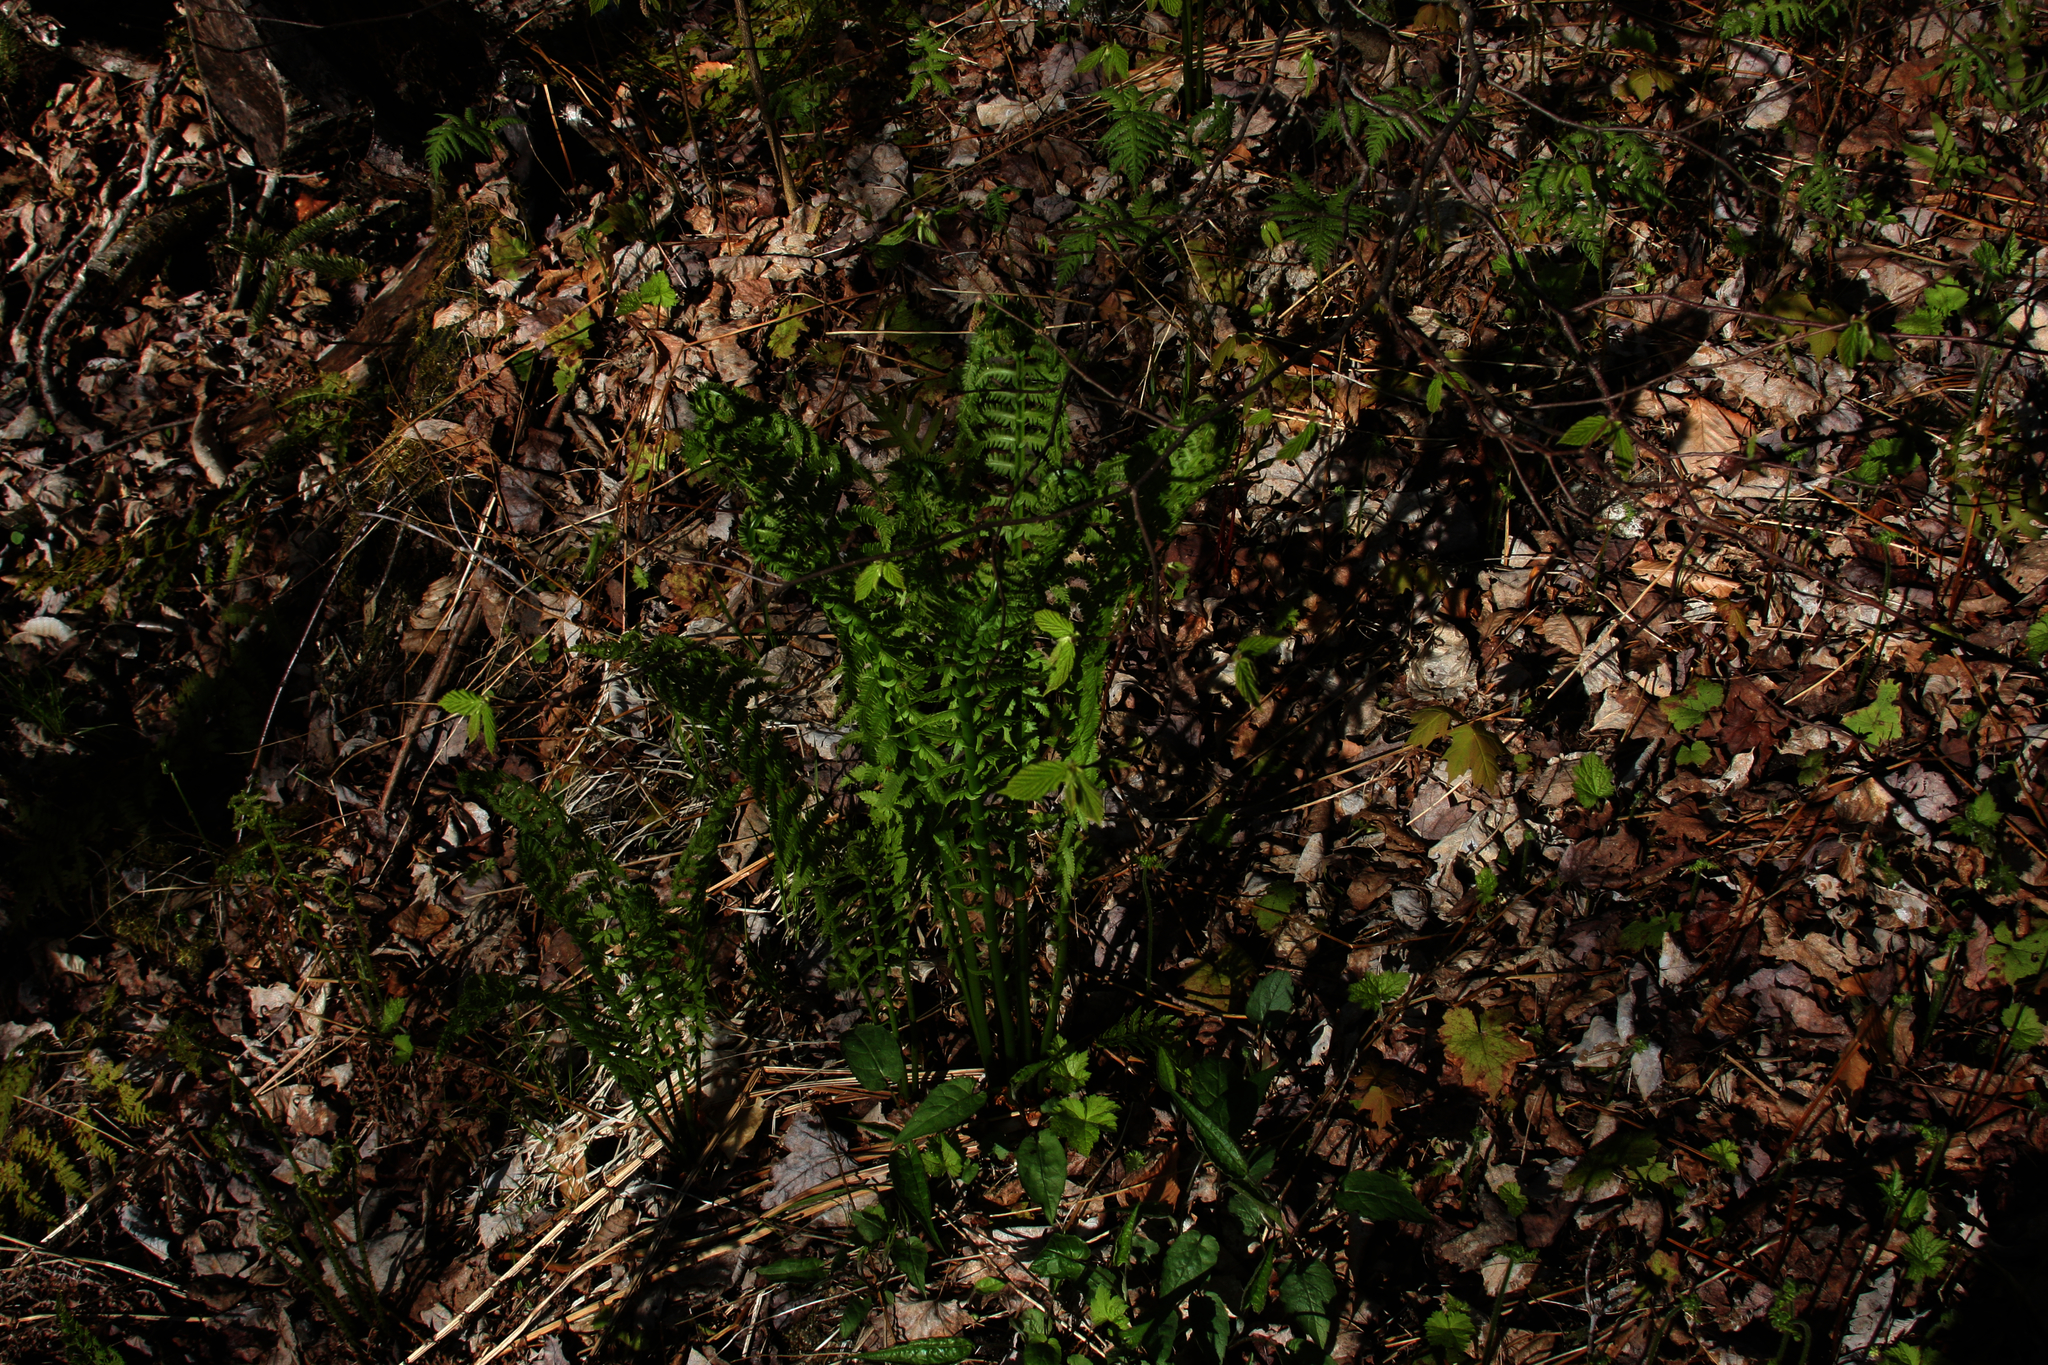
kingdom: Plantae
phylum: Tracheophyta
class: Polypodiopsida
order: Polypodiales
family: Onocleaceae
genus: Matteuccia
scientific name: Matteuccia struthiopteris
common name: Ostrich fern
